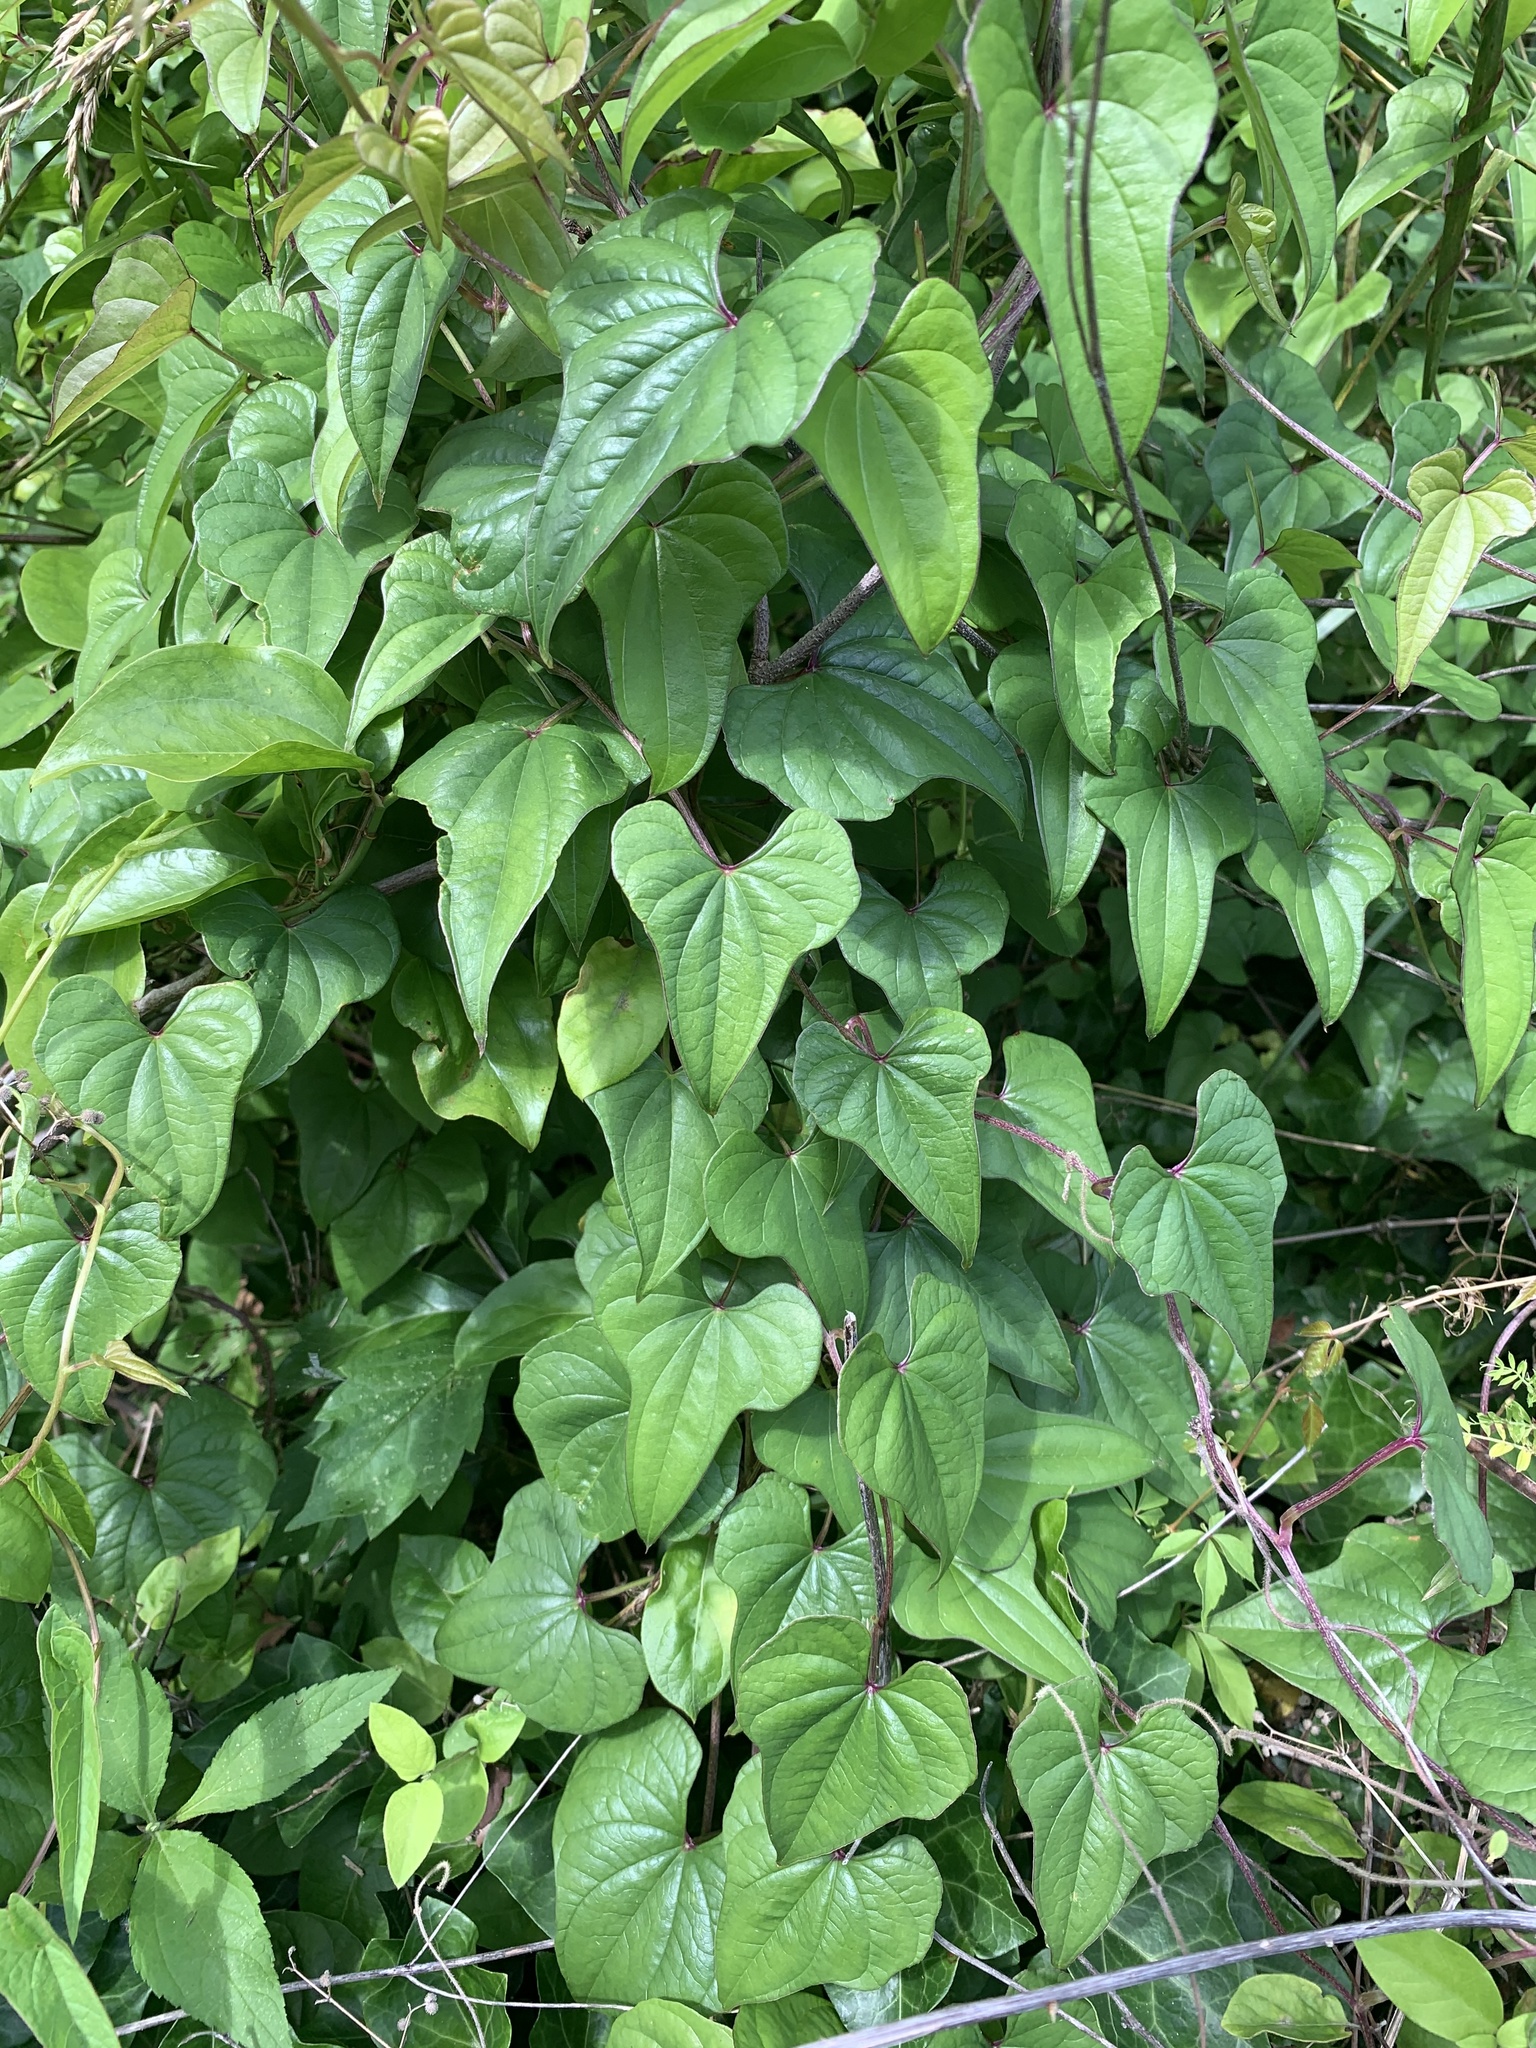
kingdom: Plantae
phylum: Tracheophyta
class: Liliopsida
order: Dioscoreales
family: Dioscoreaceae
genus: Dioscorea
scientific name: Dioscorea polystachya
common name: Chinese yam
